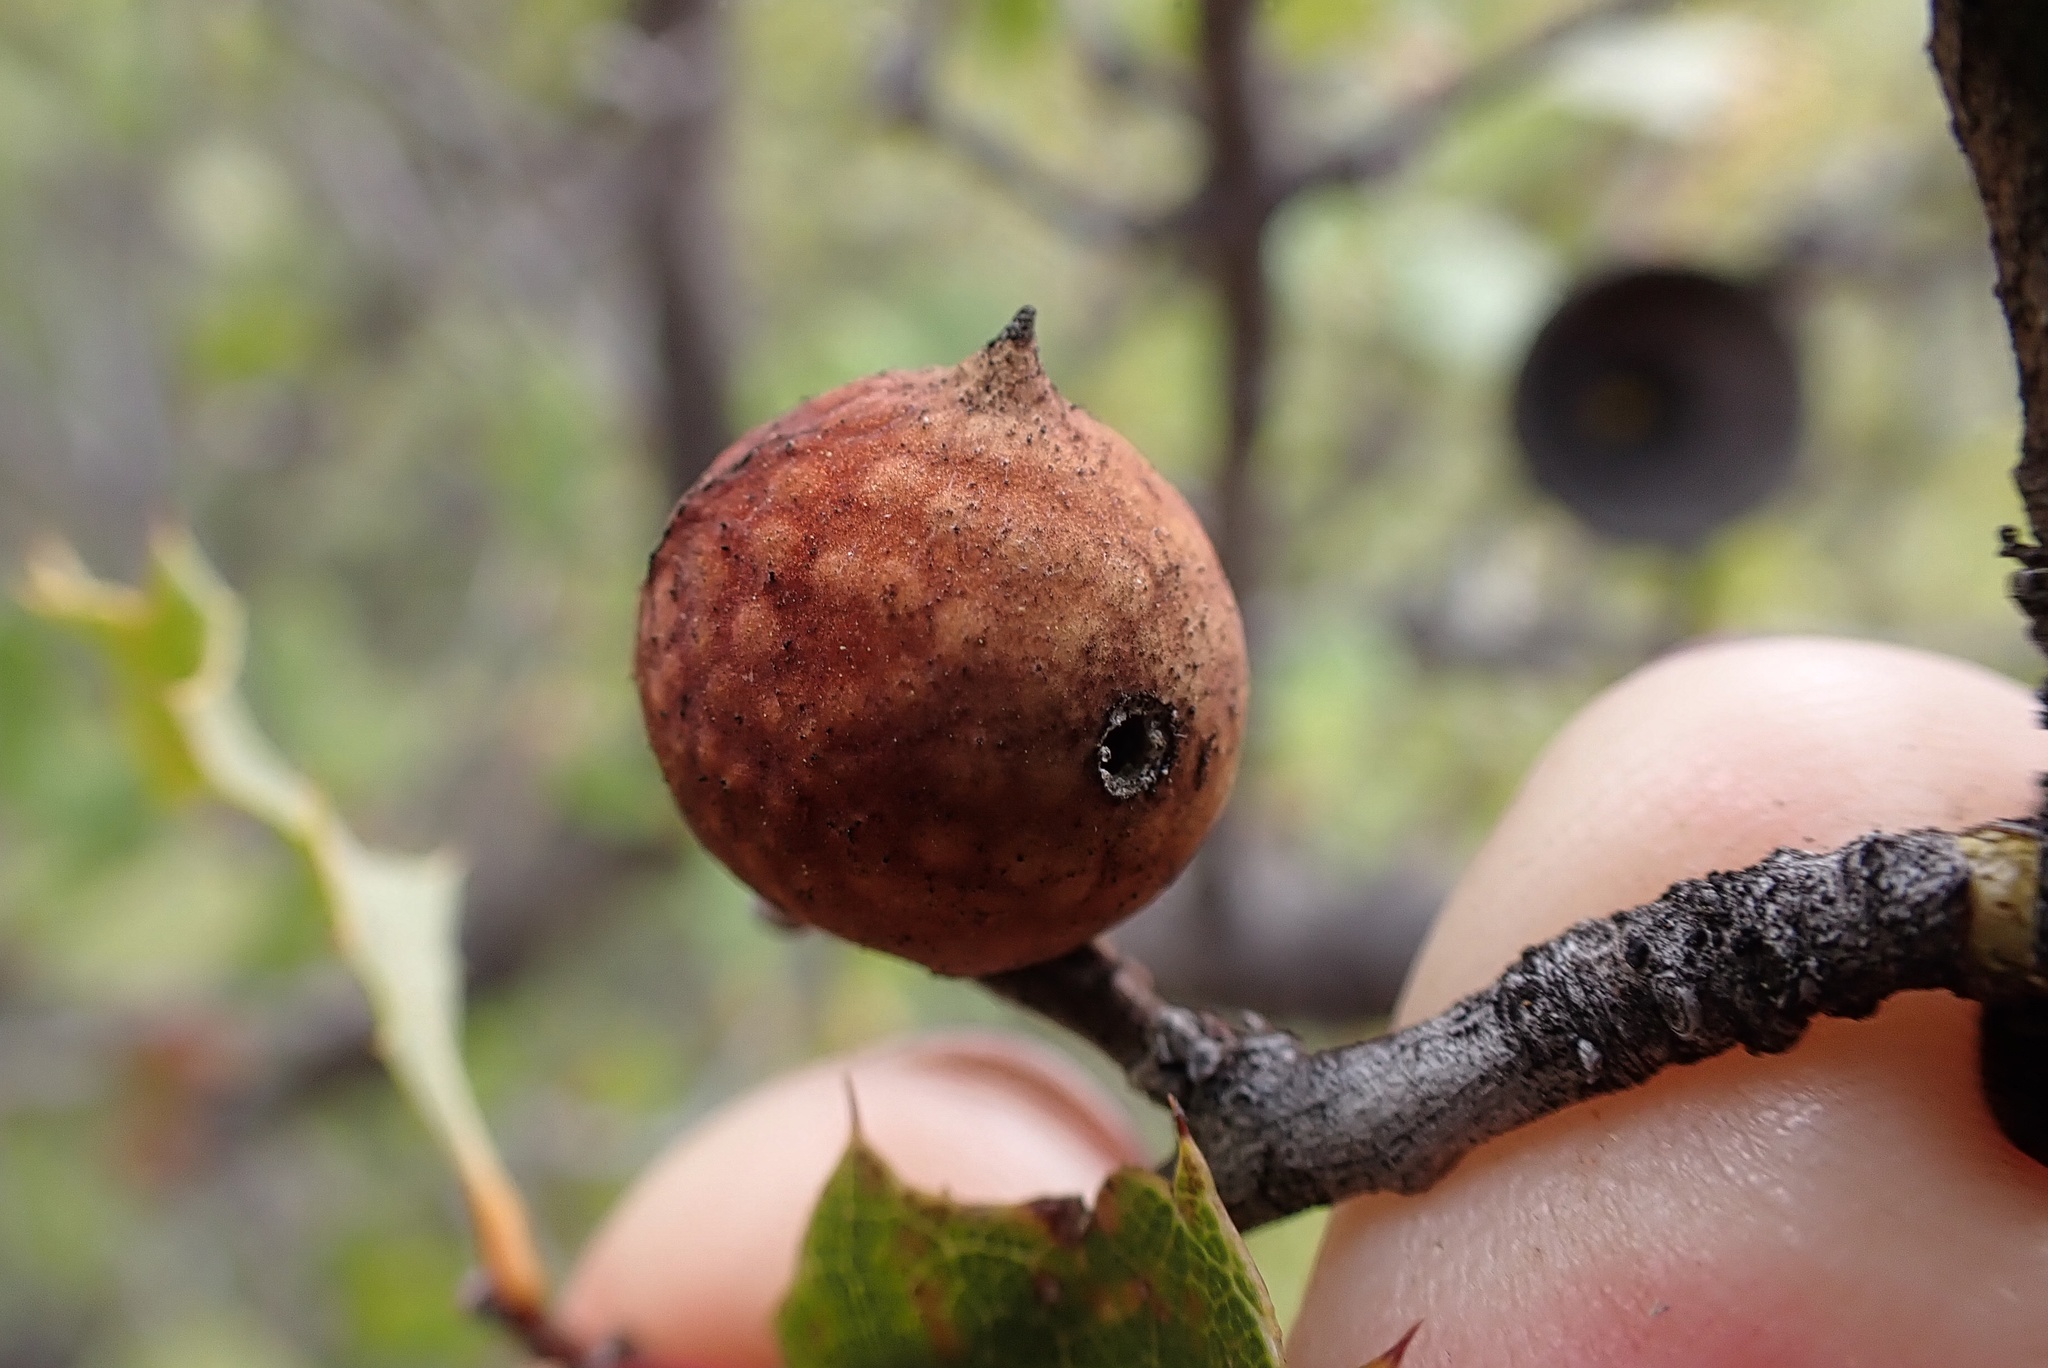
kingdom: Animalia
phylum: Arthropoda
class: Insecta
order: Hymenoptera
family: Cynipidae
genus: Burnettweldia
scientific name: Burnettweldia
